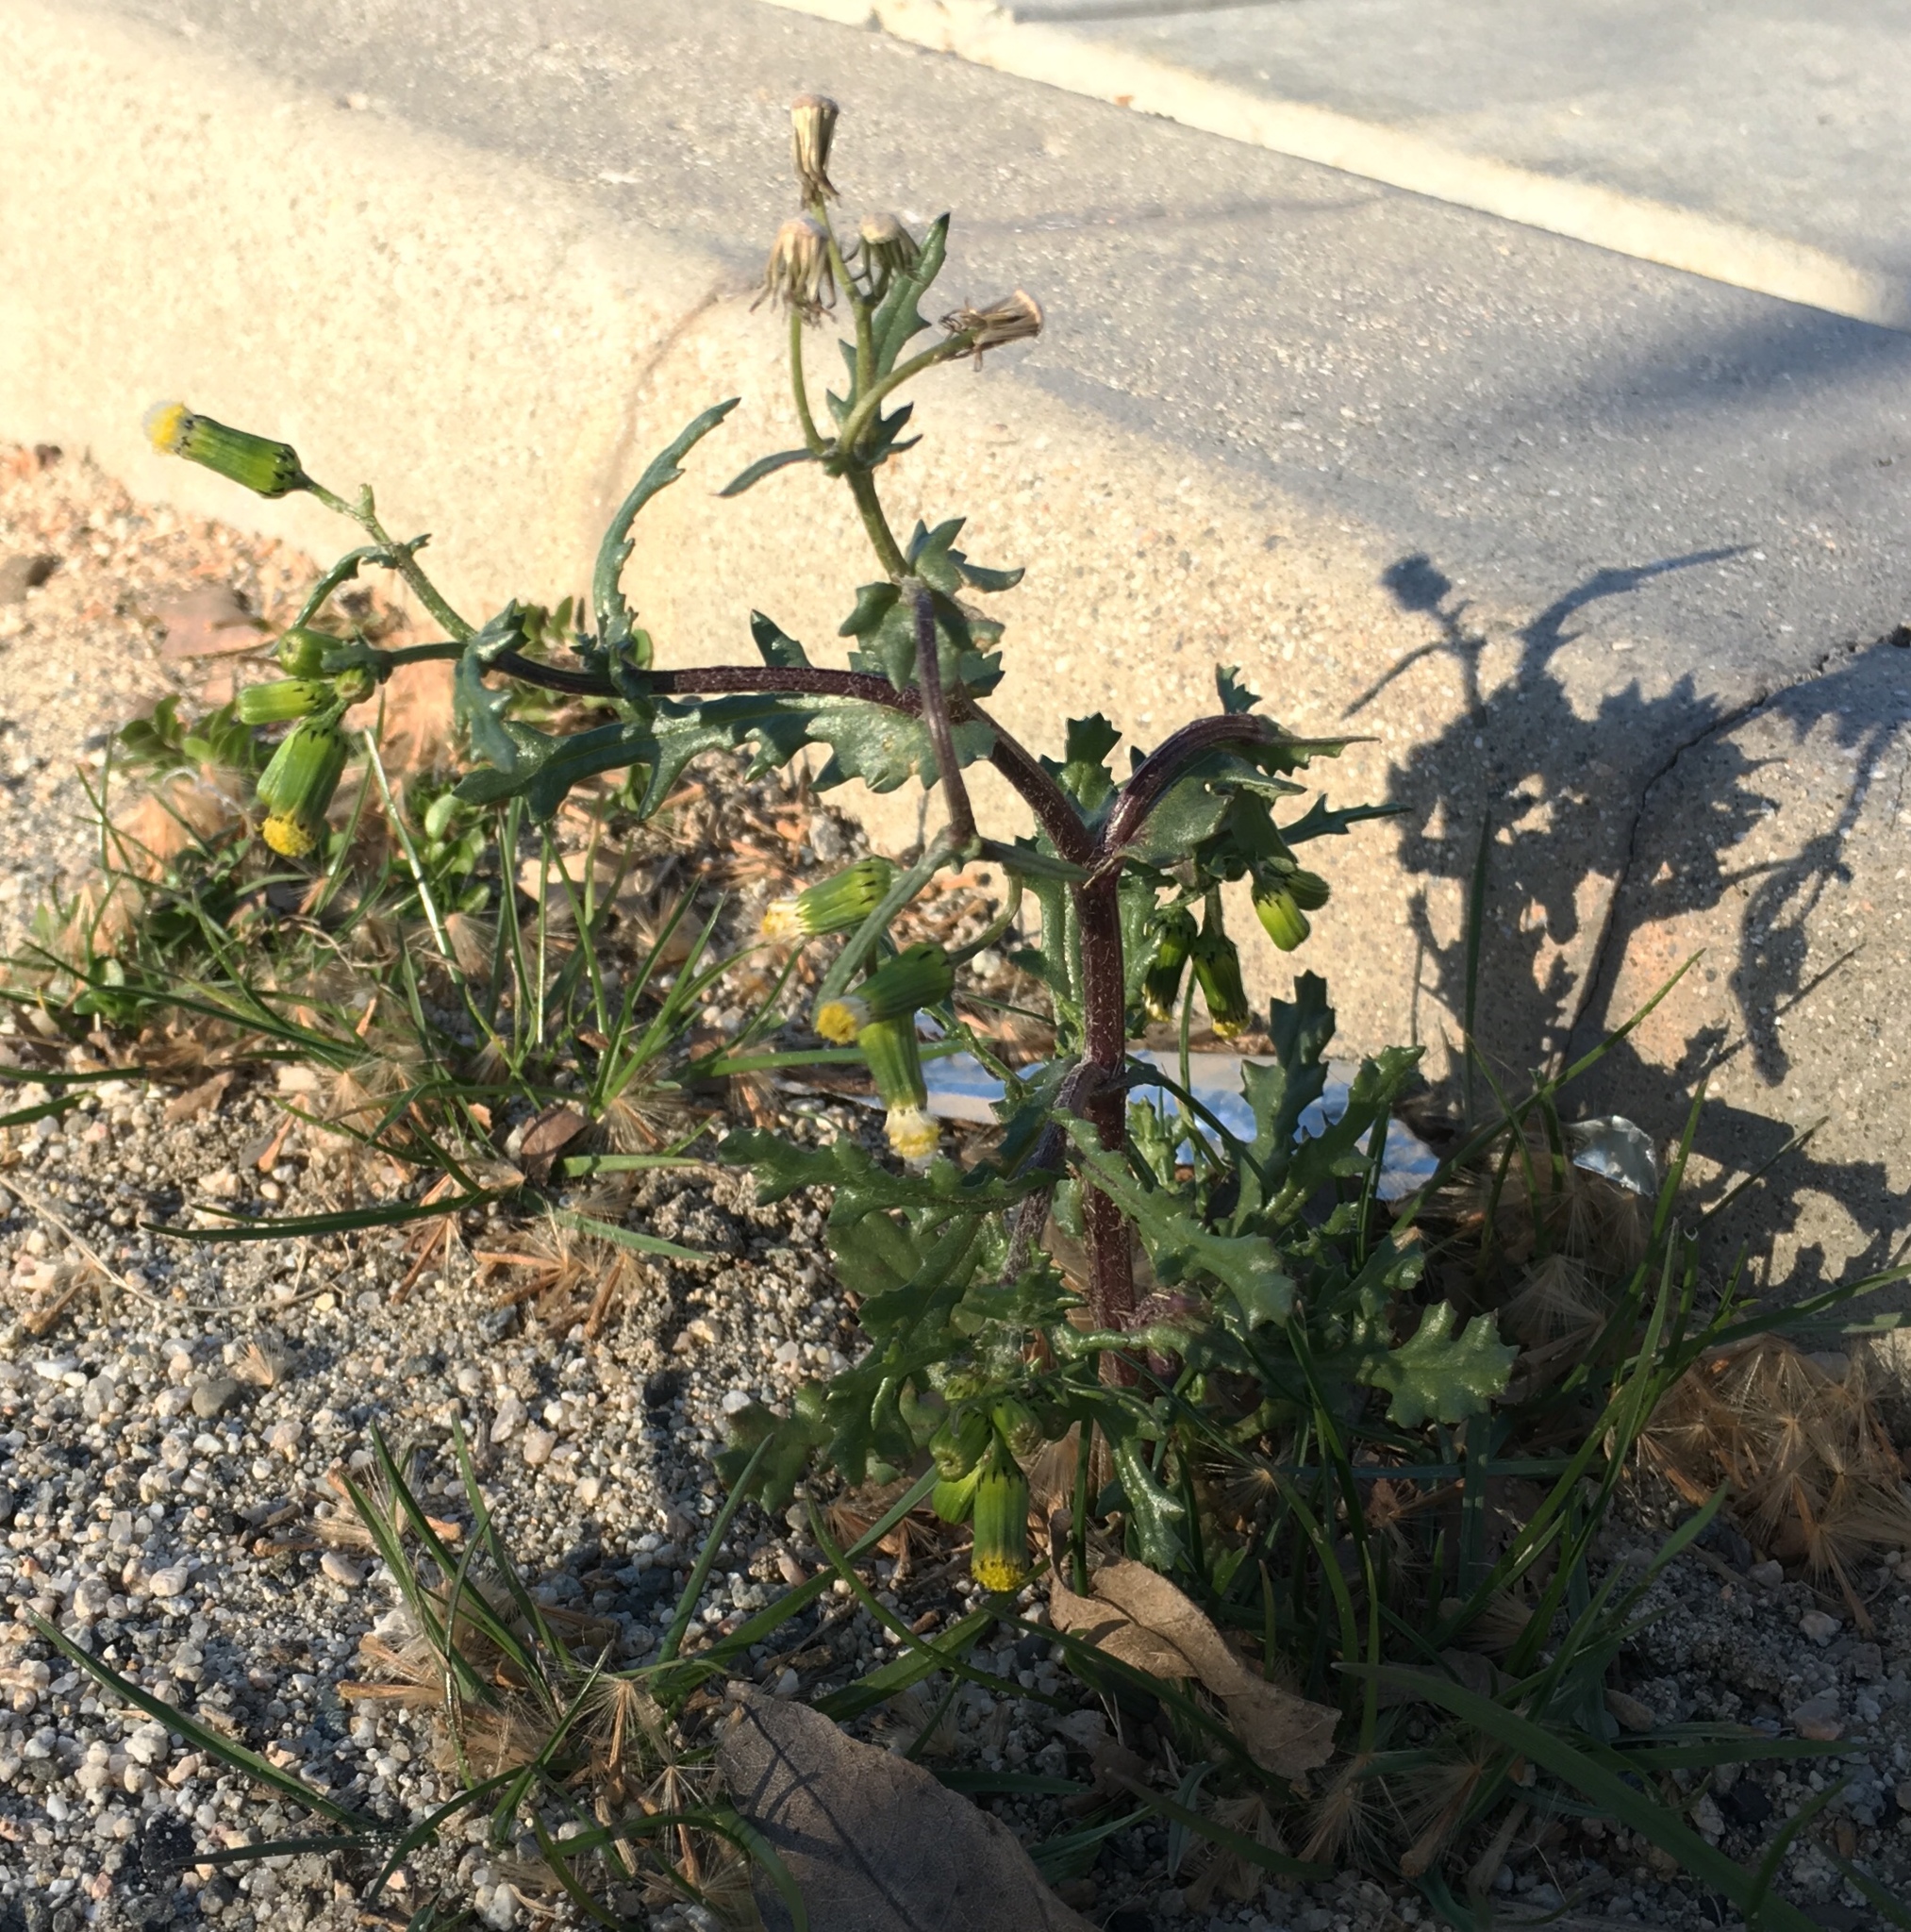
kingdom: Plantae
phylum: Tracheophyta
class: Magnoliopsida
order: Asterales
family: Asteraceae
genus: Senecio
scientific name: Senecio vulgaris
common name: Old-man-in-the-spring
